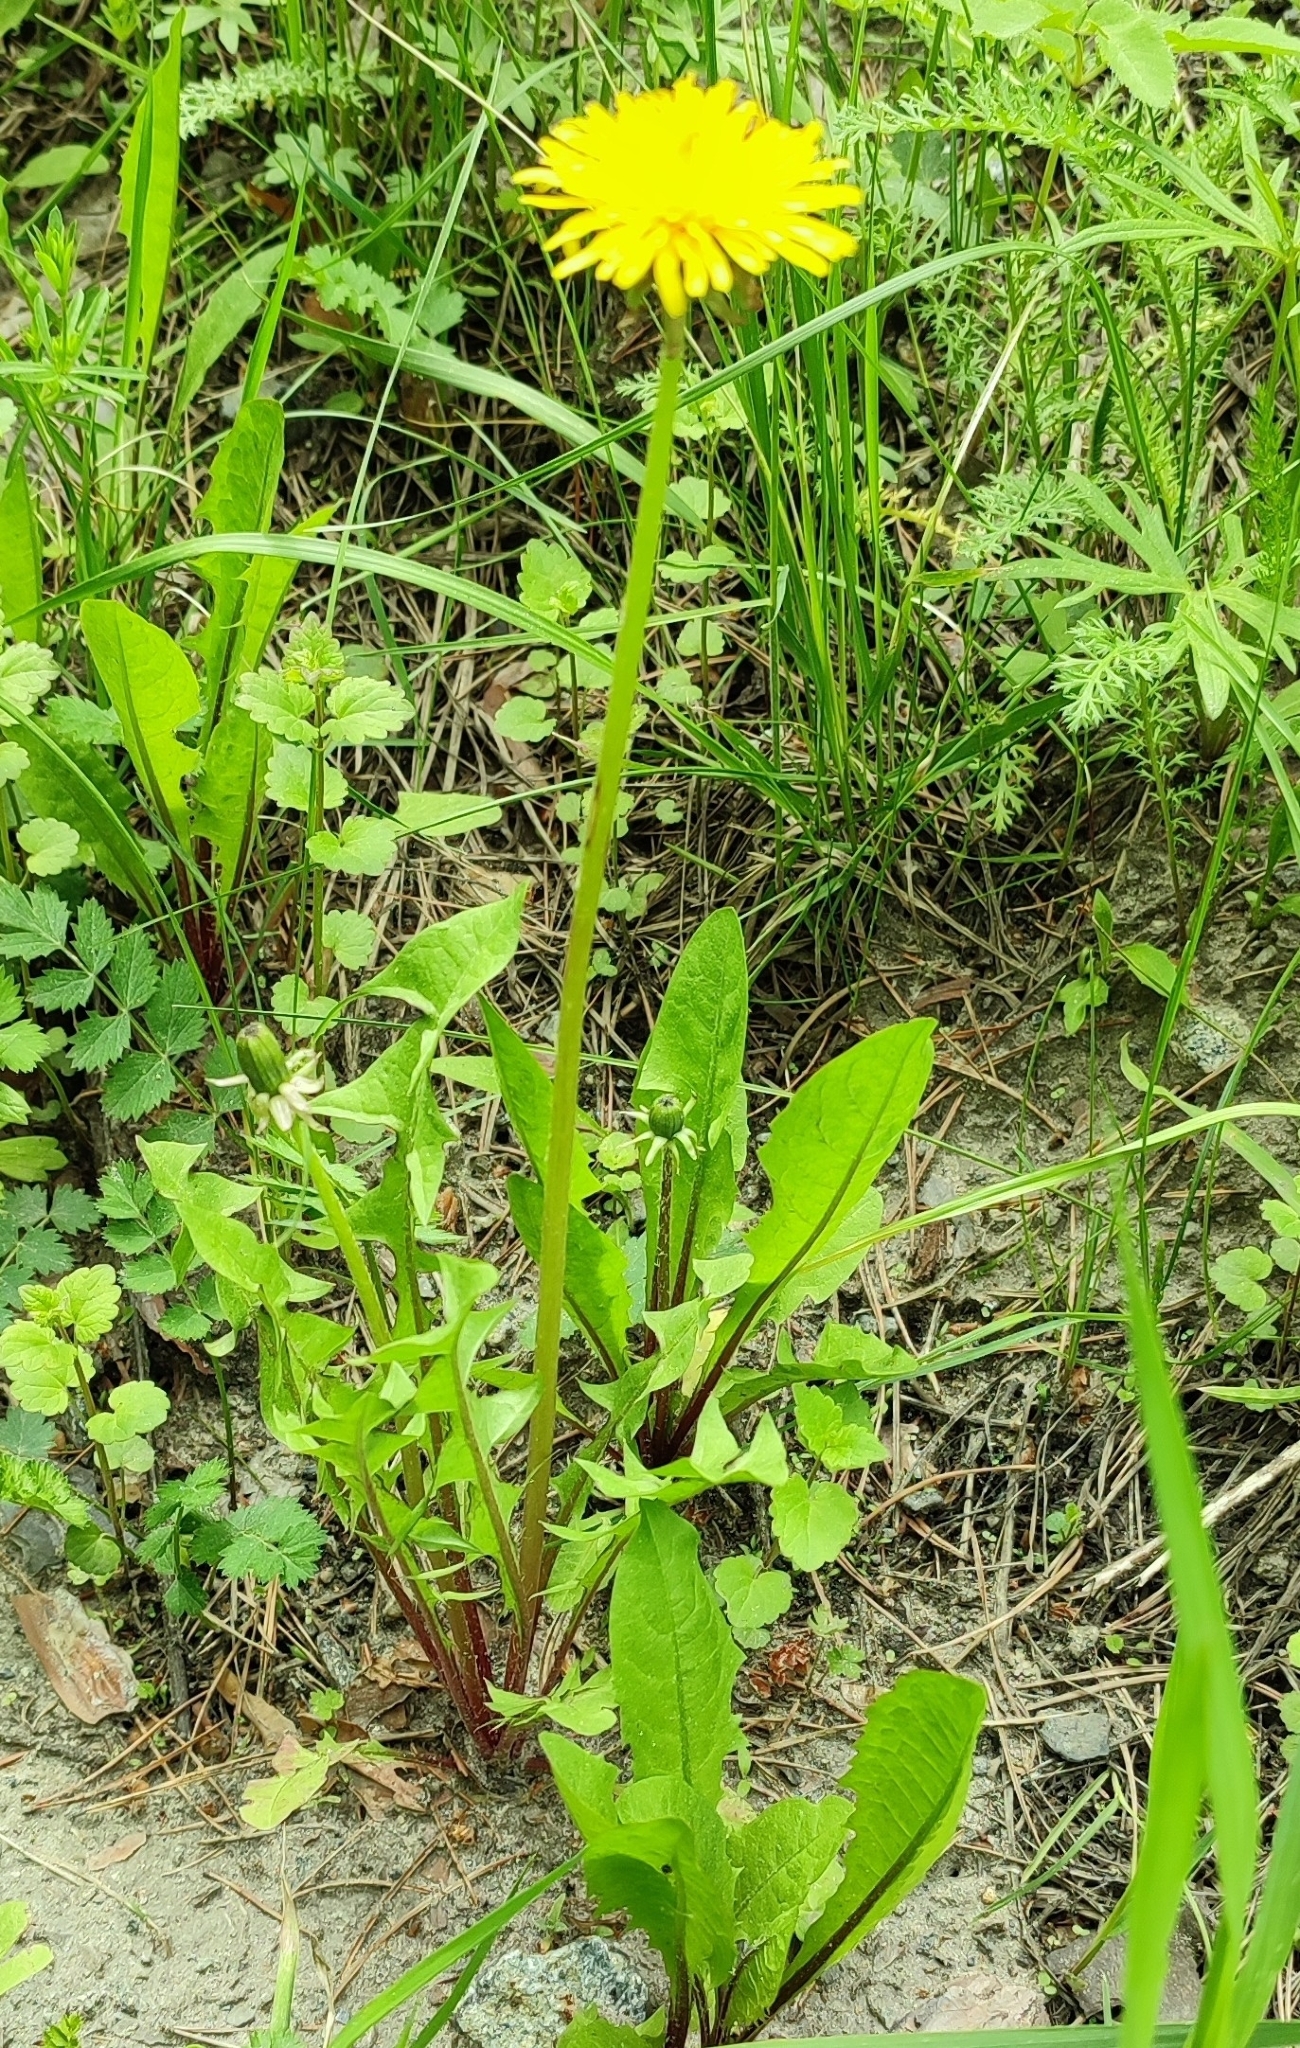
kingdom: Plantae
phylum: Tracheophyta
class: Magnoliopsida
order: Asterales
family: Asteraceae
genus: Taraxacum
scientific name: Taraxacum officinale
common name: Common dandelion
